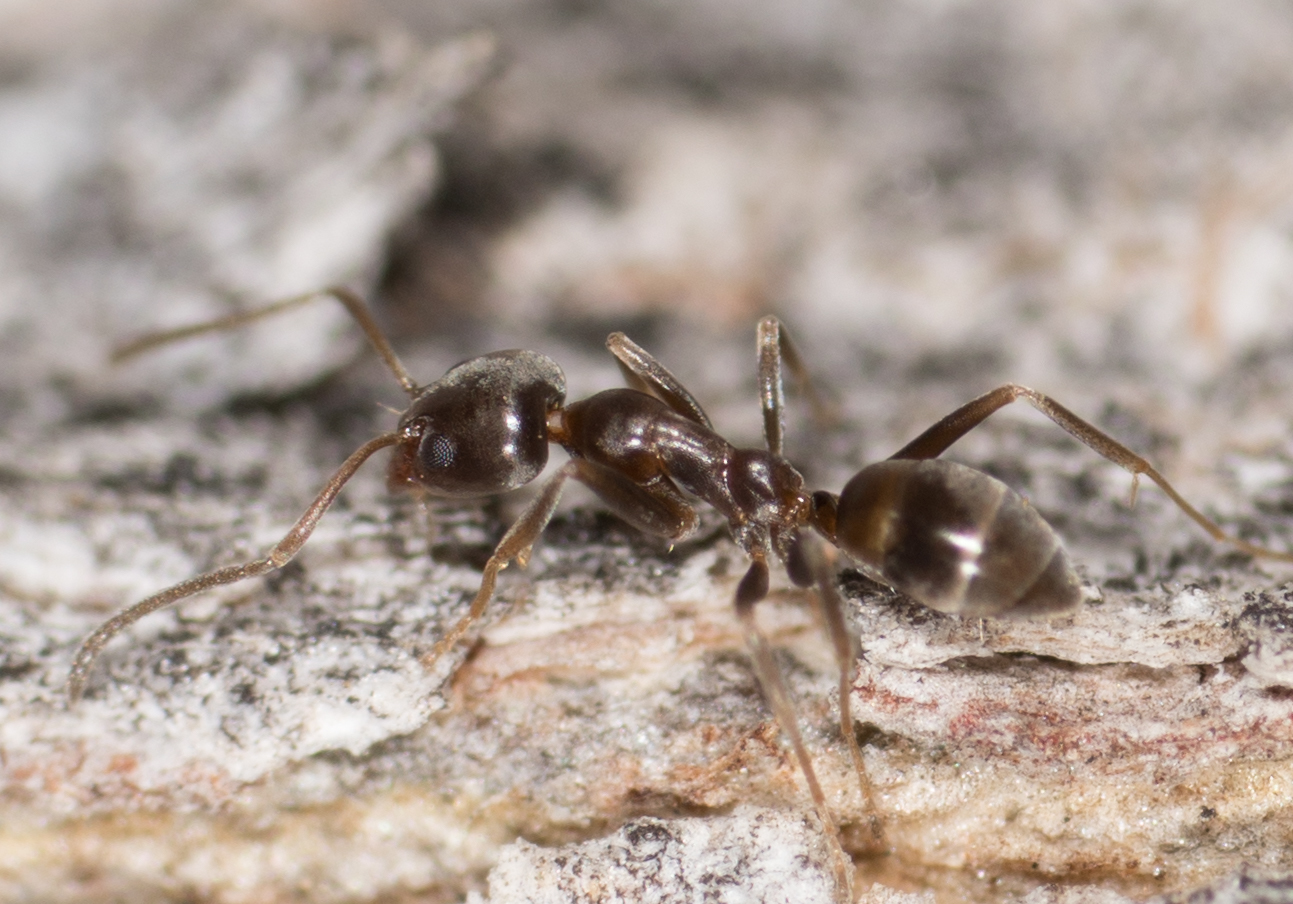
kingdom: Animalia
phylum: Arthropoda
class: Insecta
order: Hymenoptera
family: Formicidae
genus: Linepithema
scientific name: Linepithema humile
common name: Argentine ant
